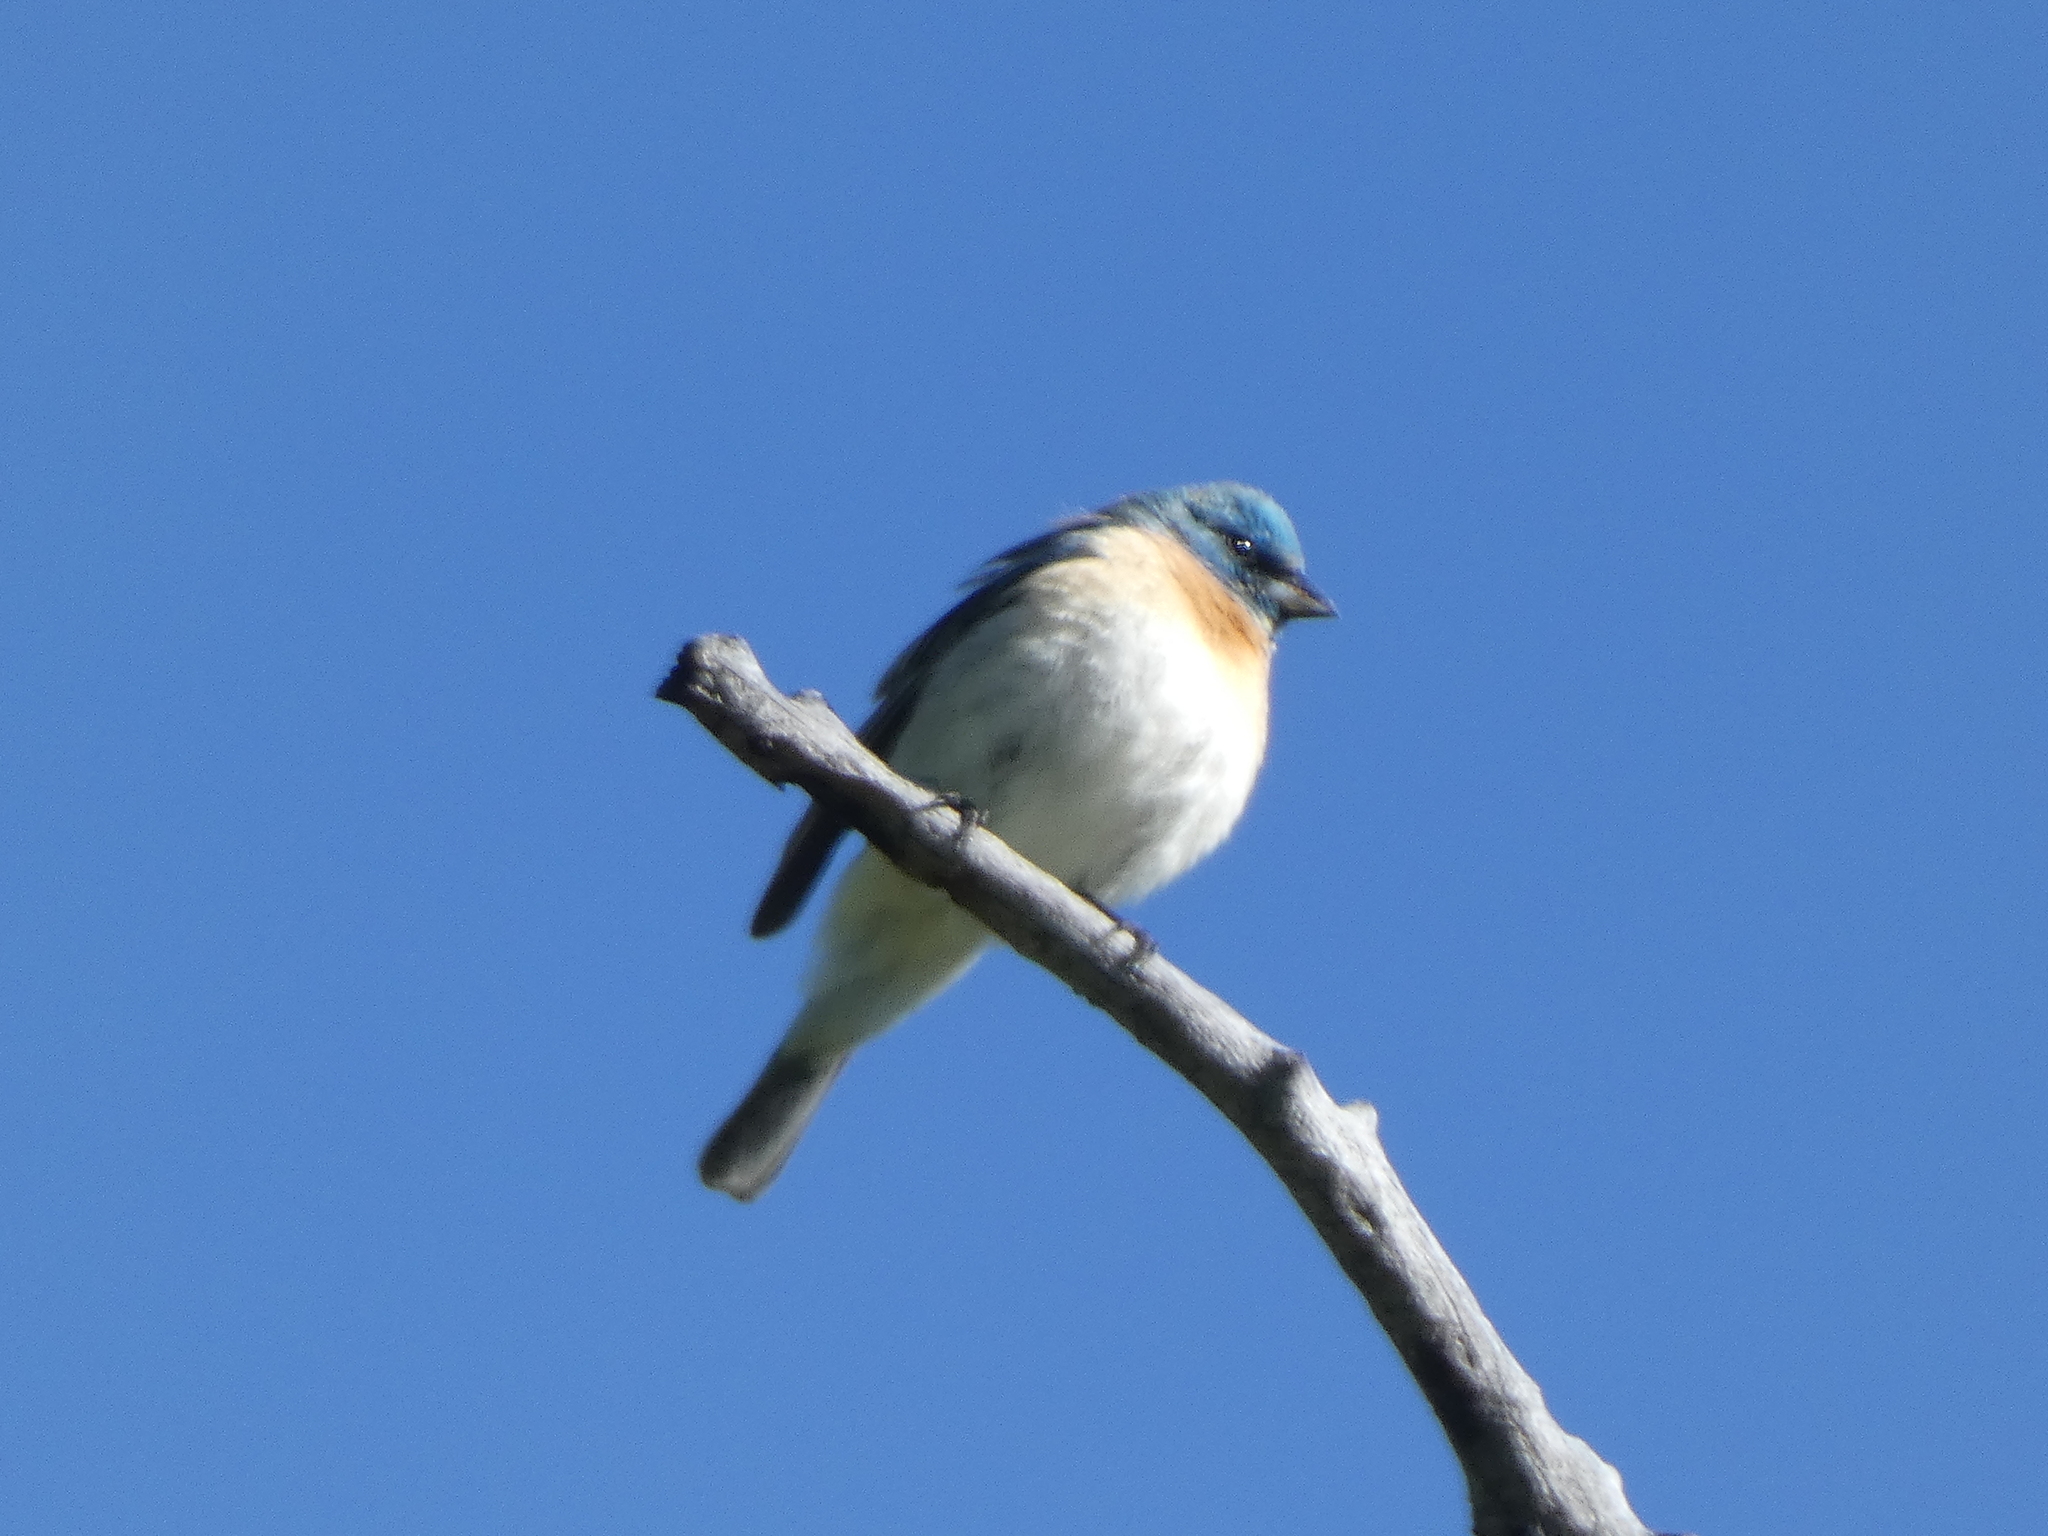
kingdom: Animalia
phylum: Chordata
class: Aves
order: Passeriformes
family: Cardinalidae
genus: Passerina
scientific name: Passerina amoena
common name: Lazuli bunting
